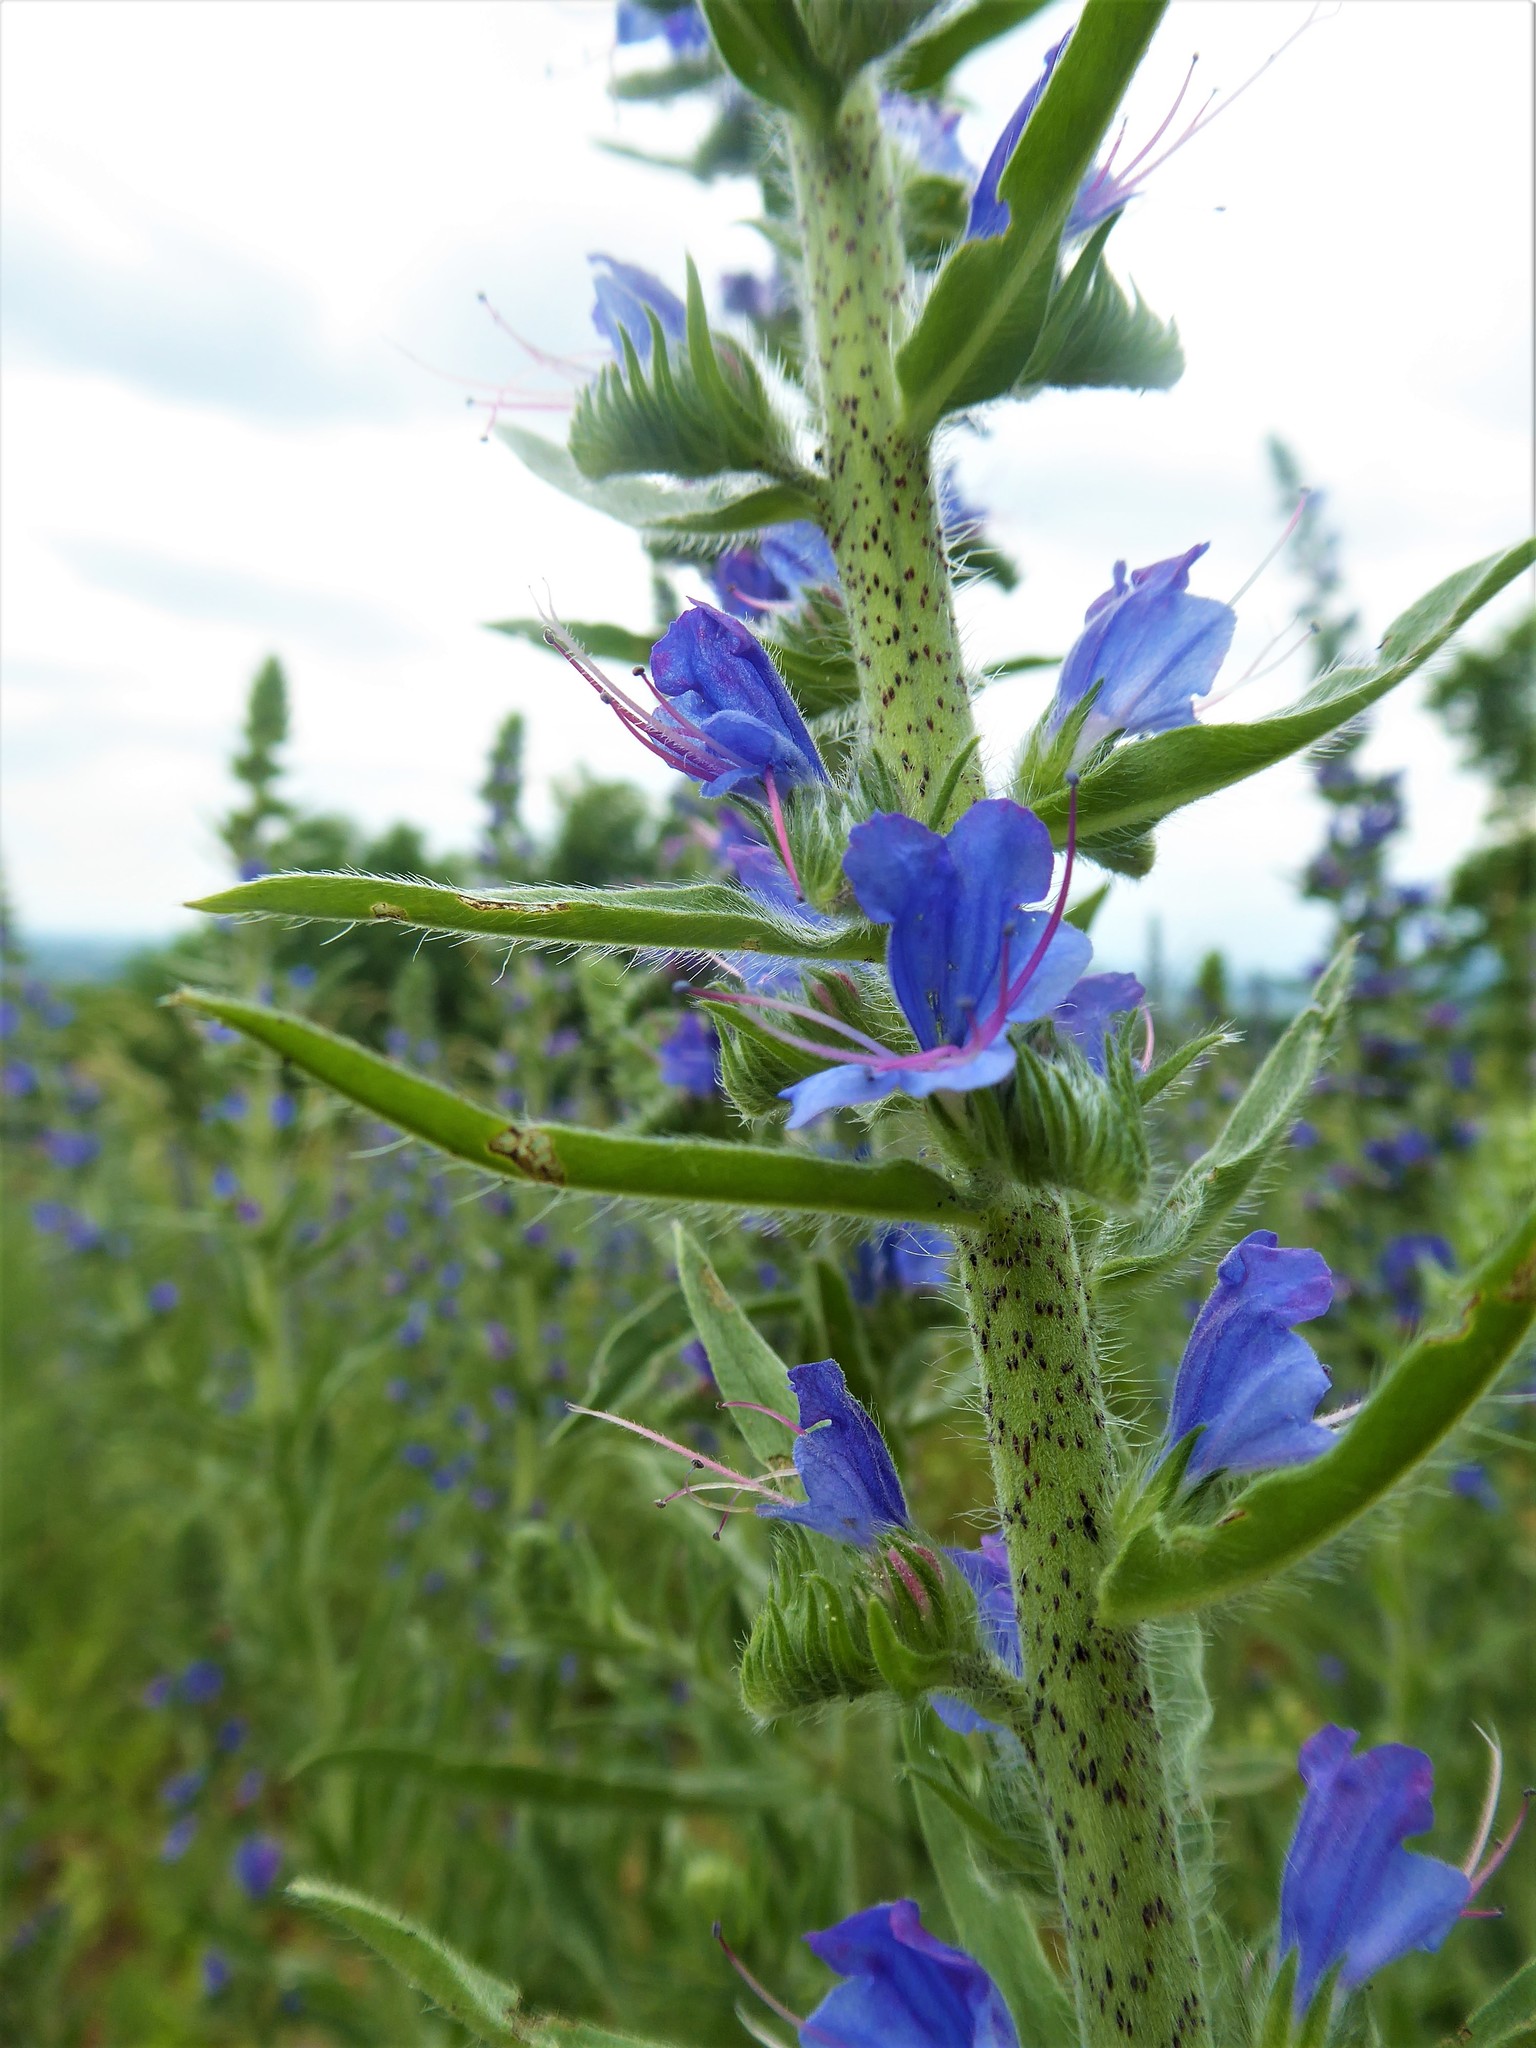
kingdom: Plantae
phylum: Tracheophyta
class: Magnoliopsida
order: Boraginales
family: Boraginaceae
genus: Echium
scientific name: Echium vulgare
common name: Common viper's bugloss
